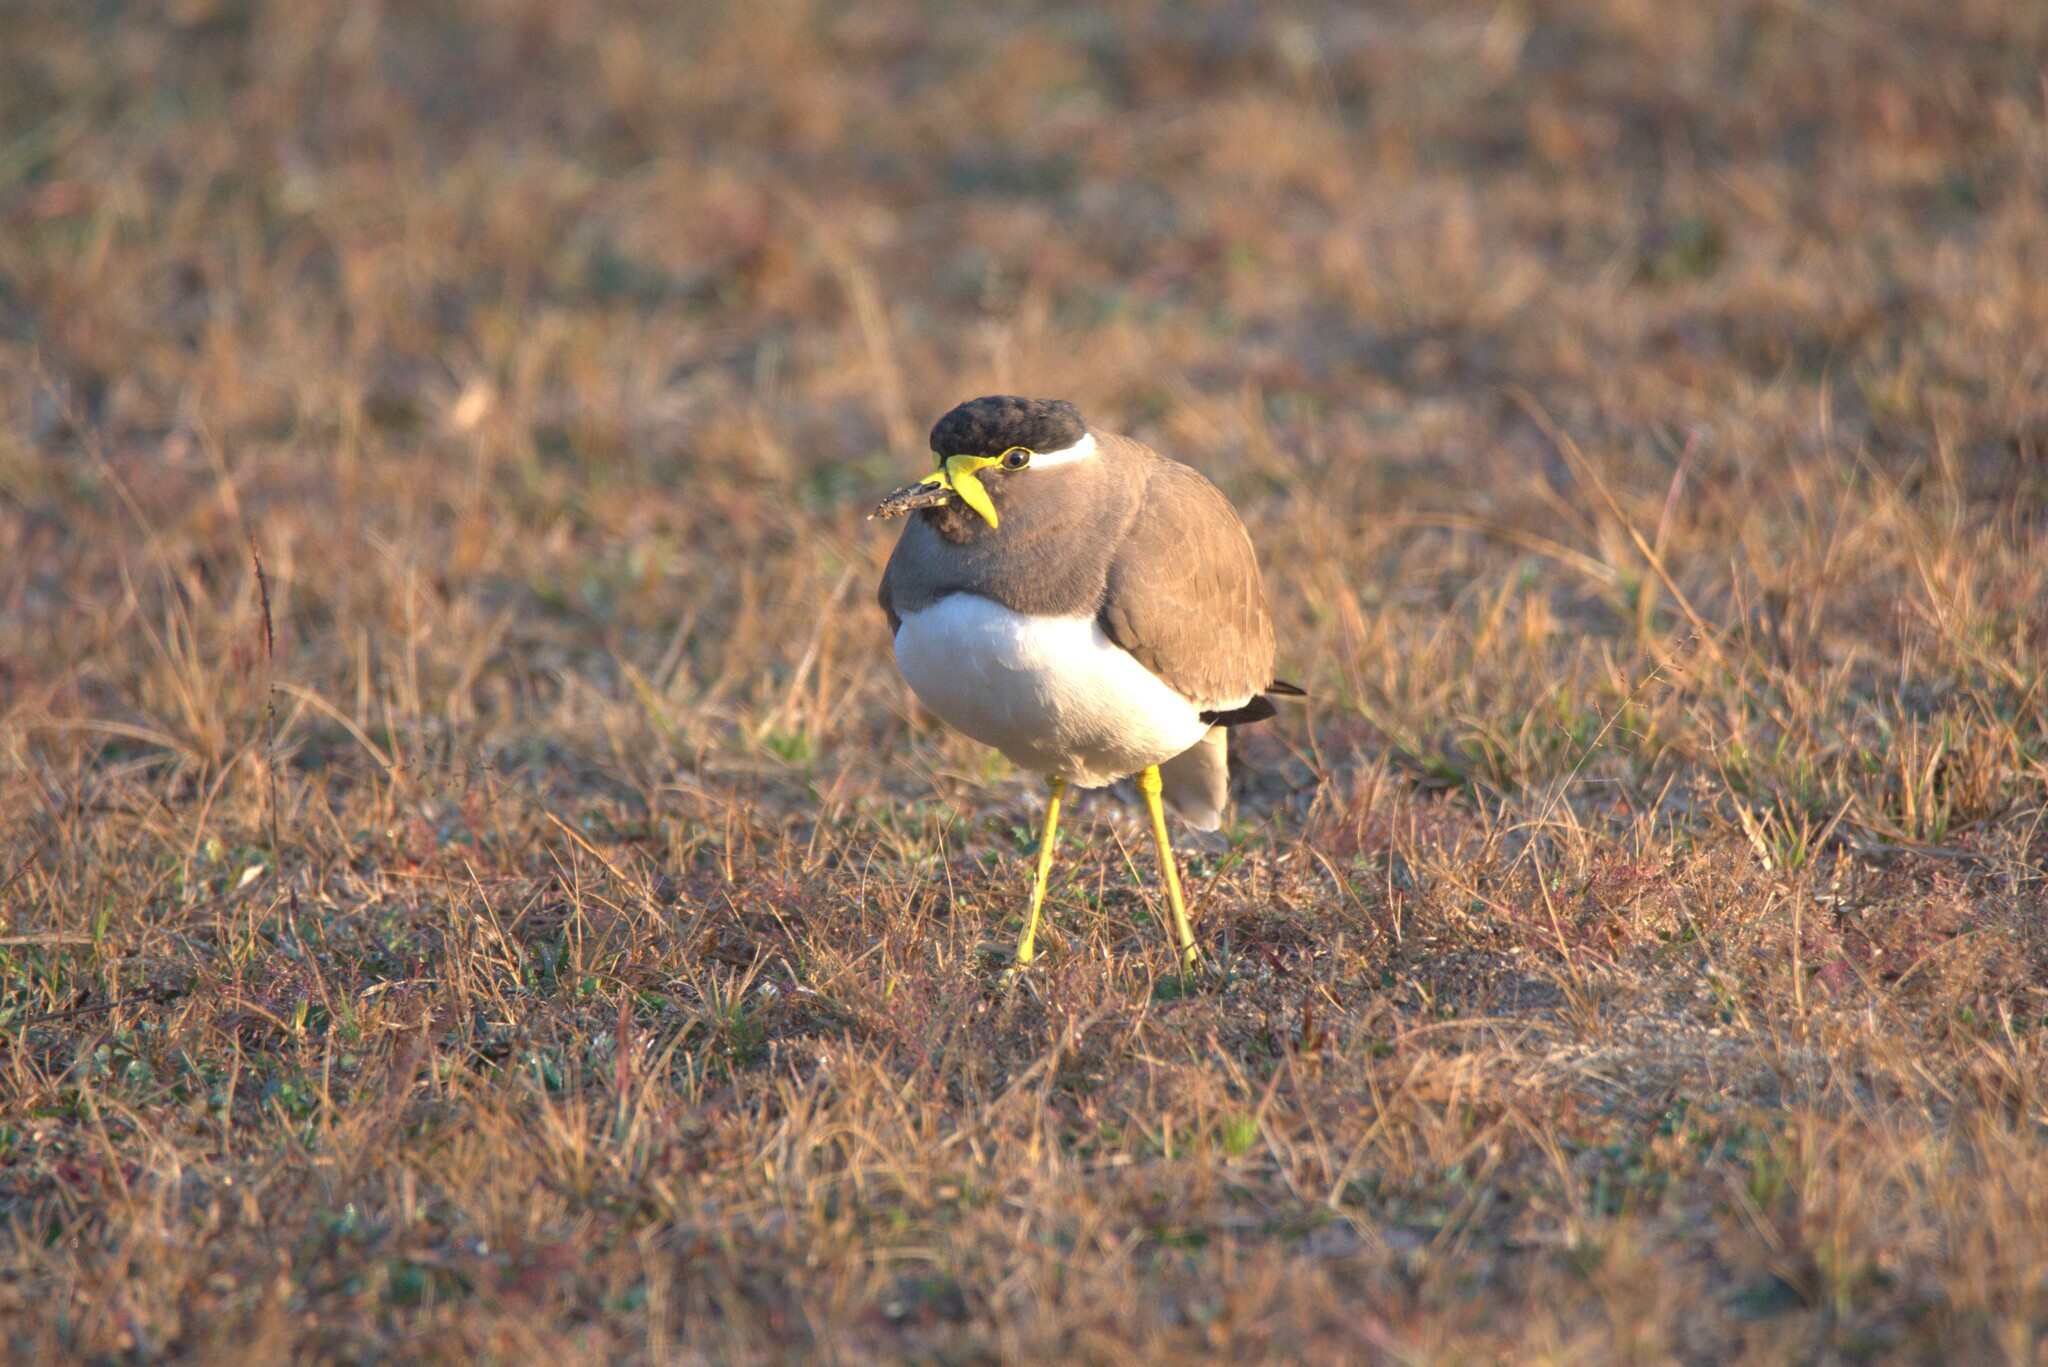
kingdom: Animalia
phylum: Chordata
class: Aves
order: Charadriiformes
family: Charadriidae
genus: Vanellus
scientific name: Vanellus malabaricus
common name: Yellow-wattled lapwing
